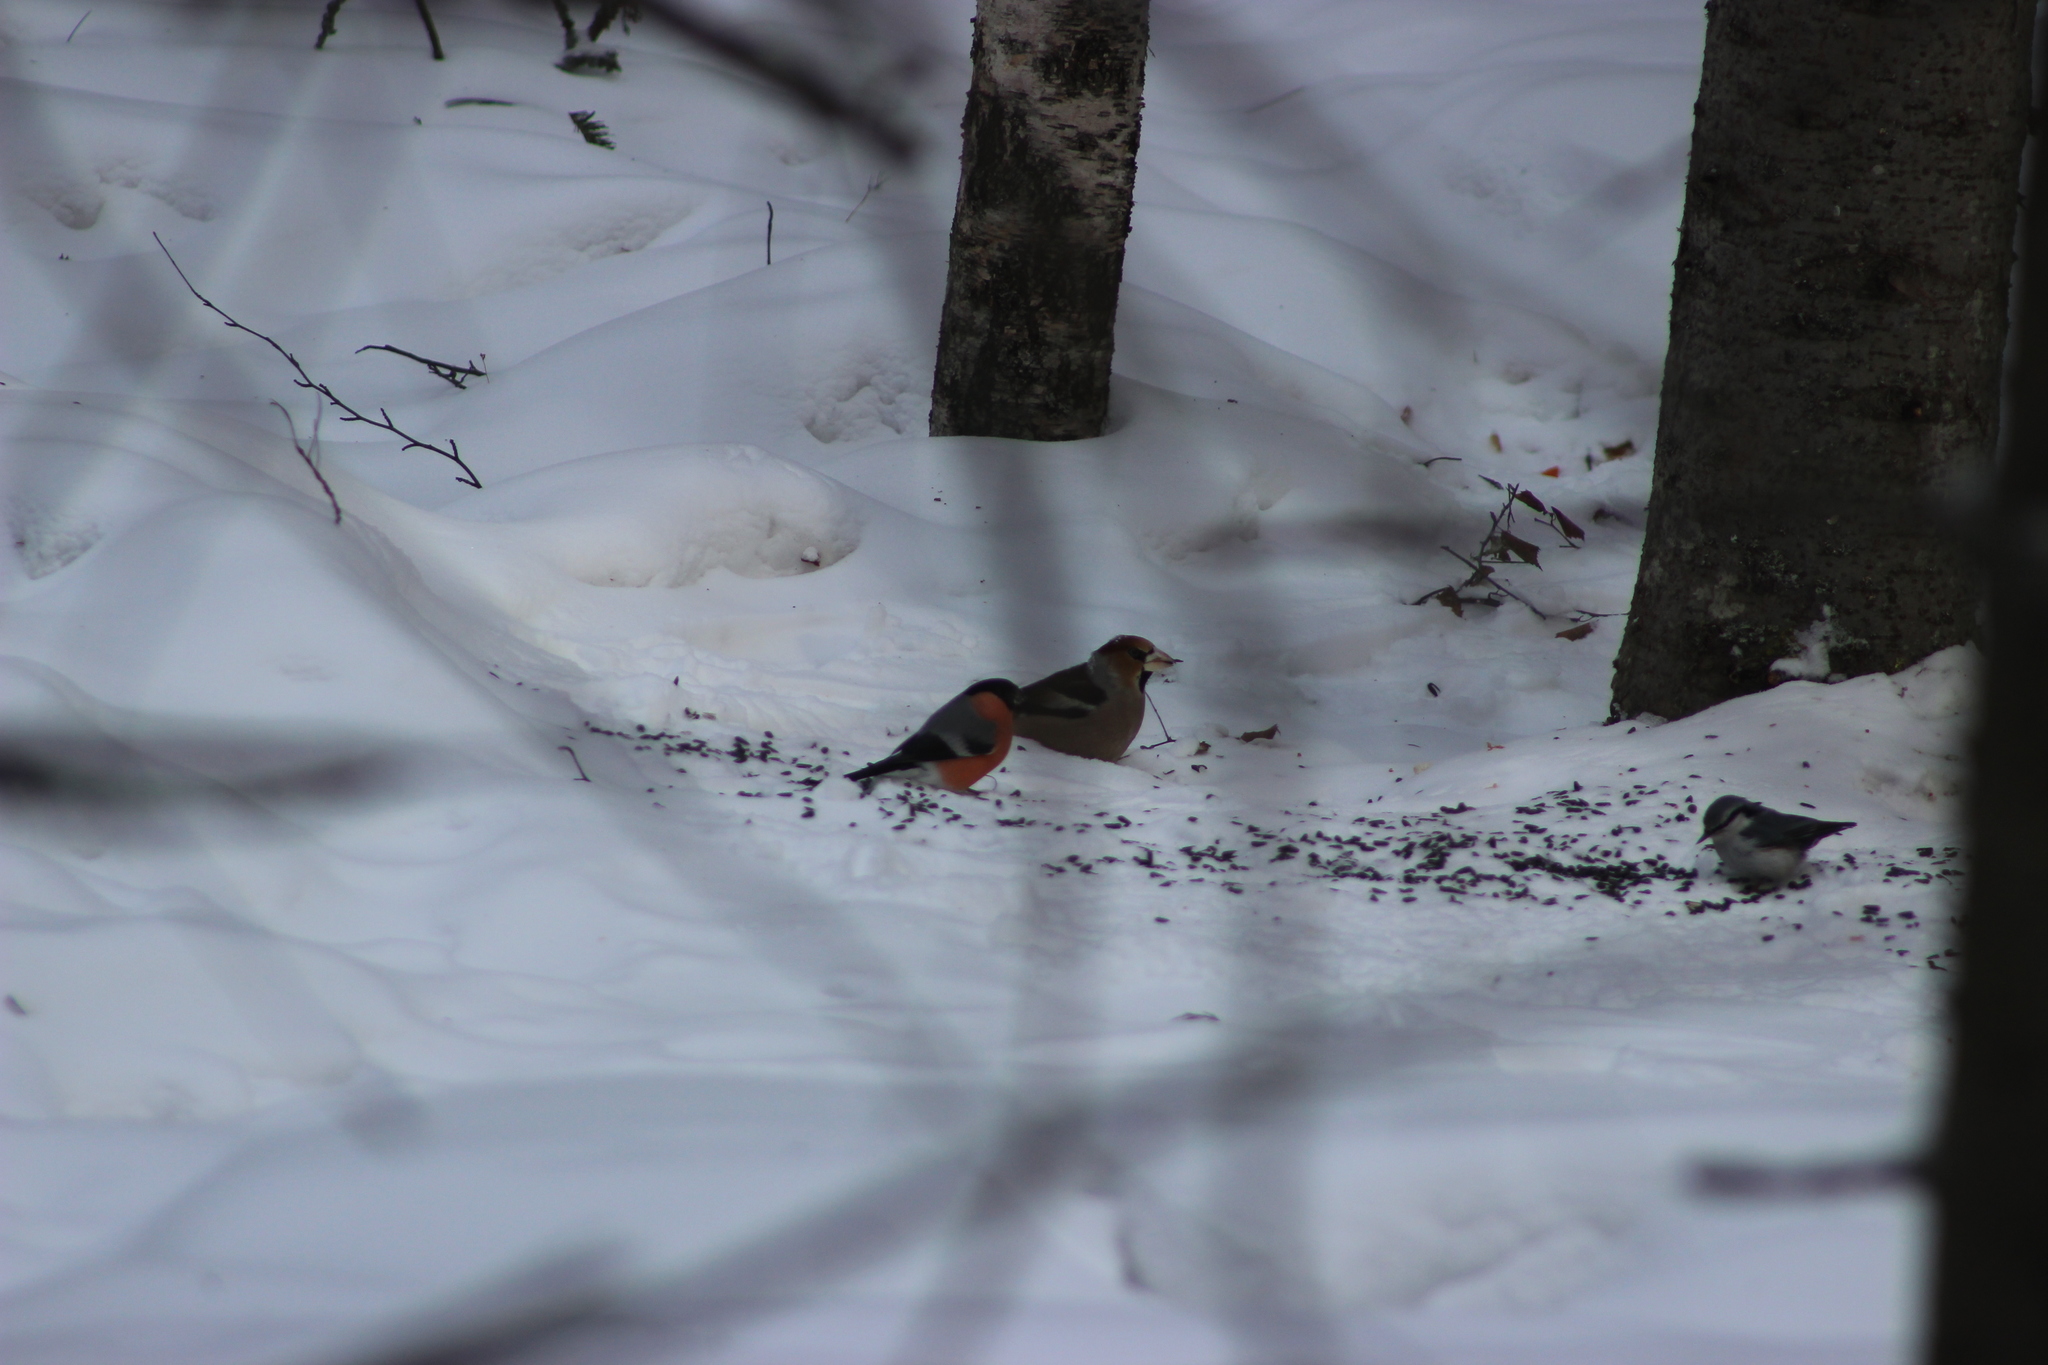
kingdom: Animalia
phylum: Chordata
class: Aves
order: Passeriformes
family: Fringillidae
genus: Coccothraustes
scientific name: Coccothraustes coccothraustes
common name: Hawfinch
